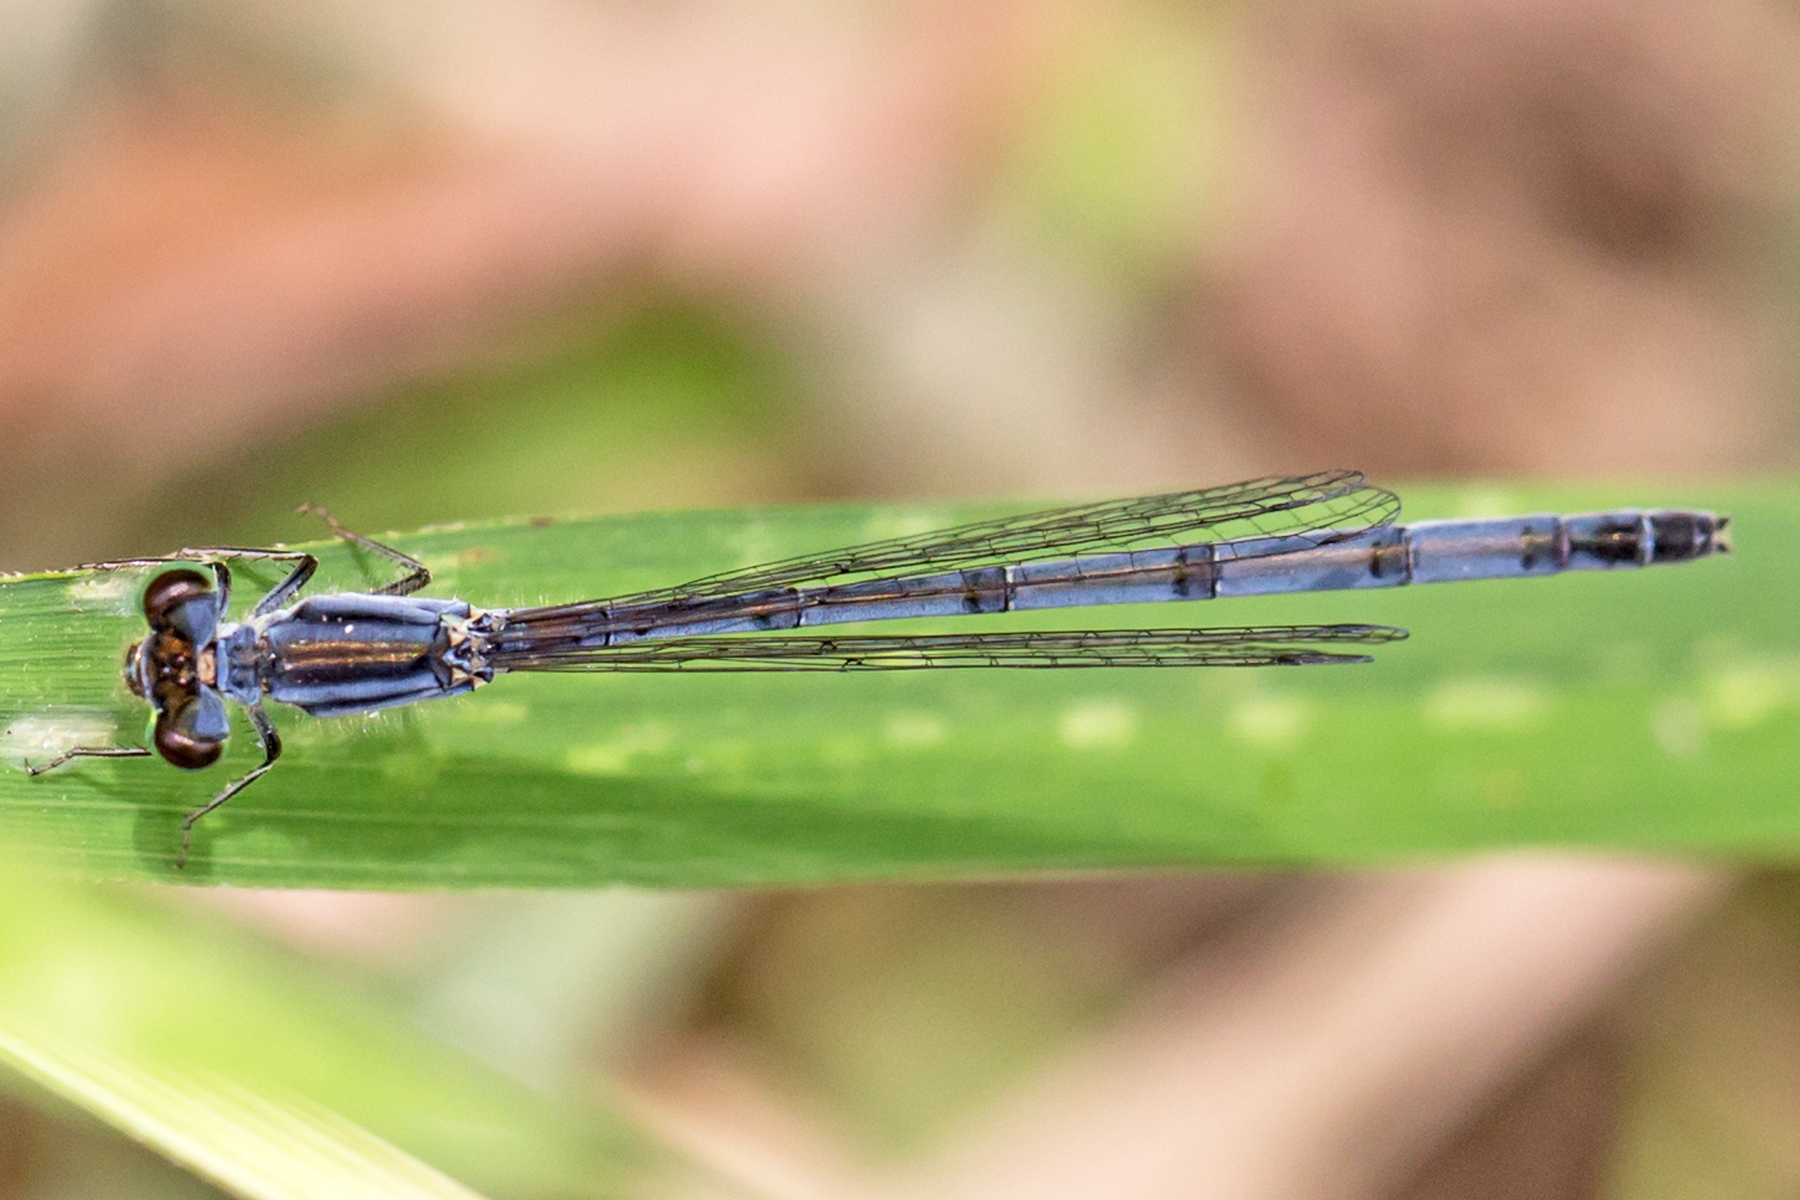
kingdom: Animalia
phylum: Arthropoda
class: Insecta
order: Odonata
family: Coenagrionidae
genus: Ischnura
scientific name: Ischnura verticalis
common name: Eastern forktail
